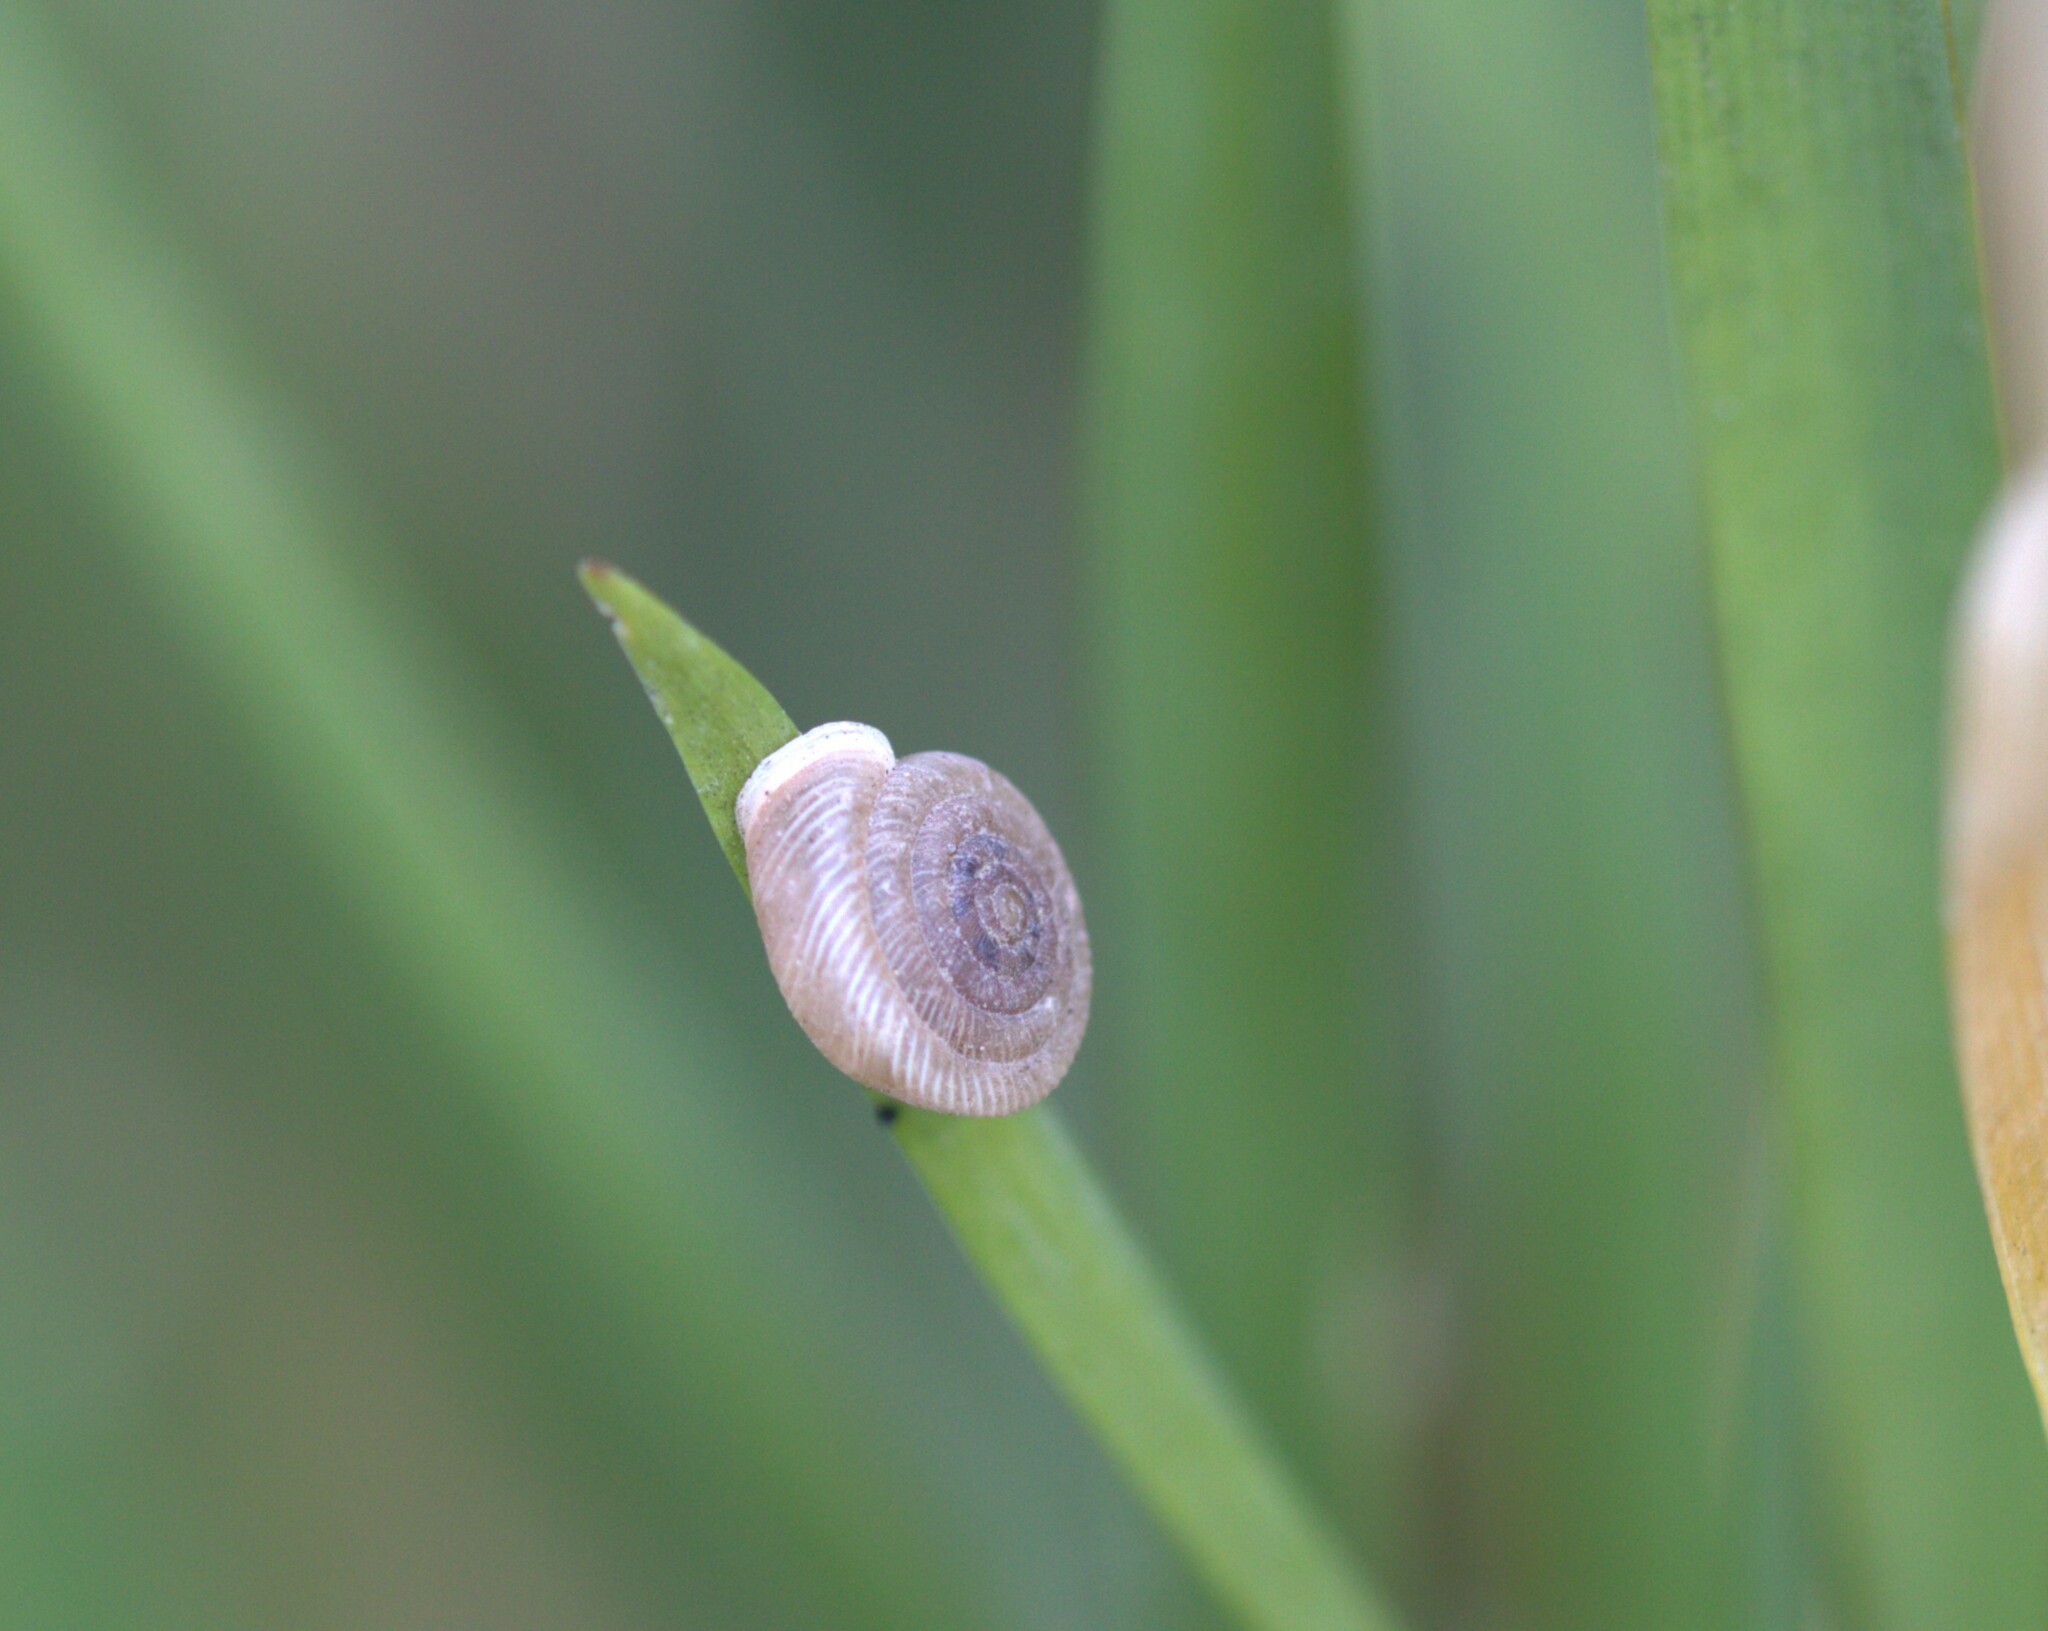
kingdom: Animalia
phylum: Mollusca
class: Gastropoda
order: Stylommatophora
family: Polygyridae
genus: Polygyra
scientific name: Polygyra cereolus
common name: Southern flatcone snail
